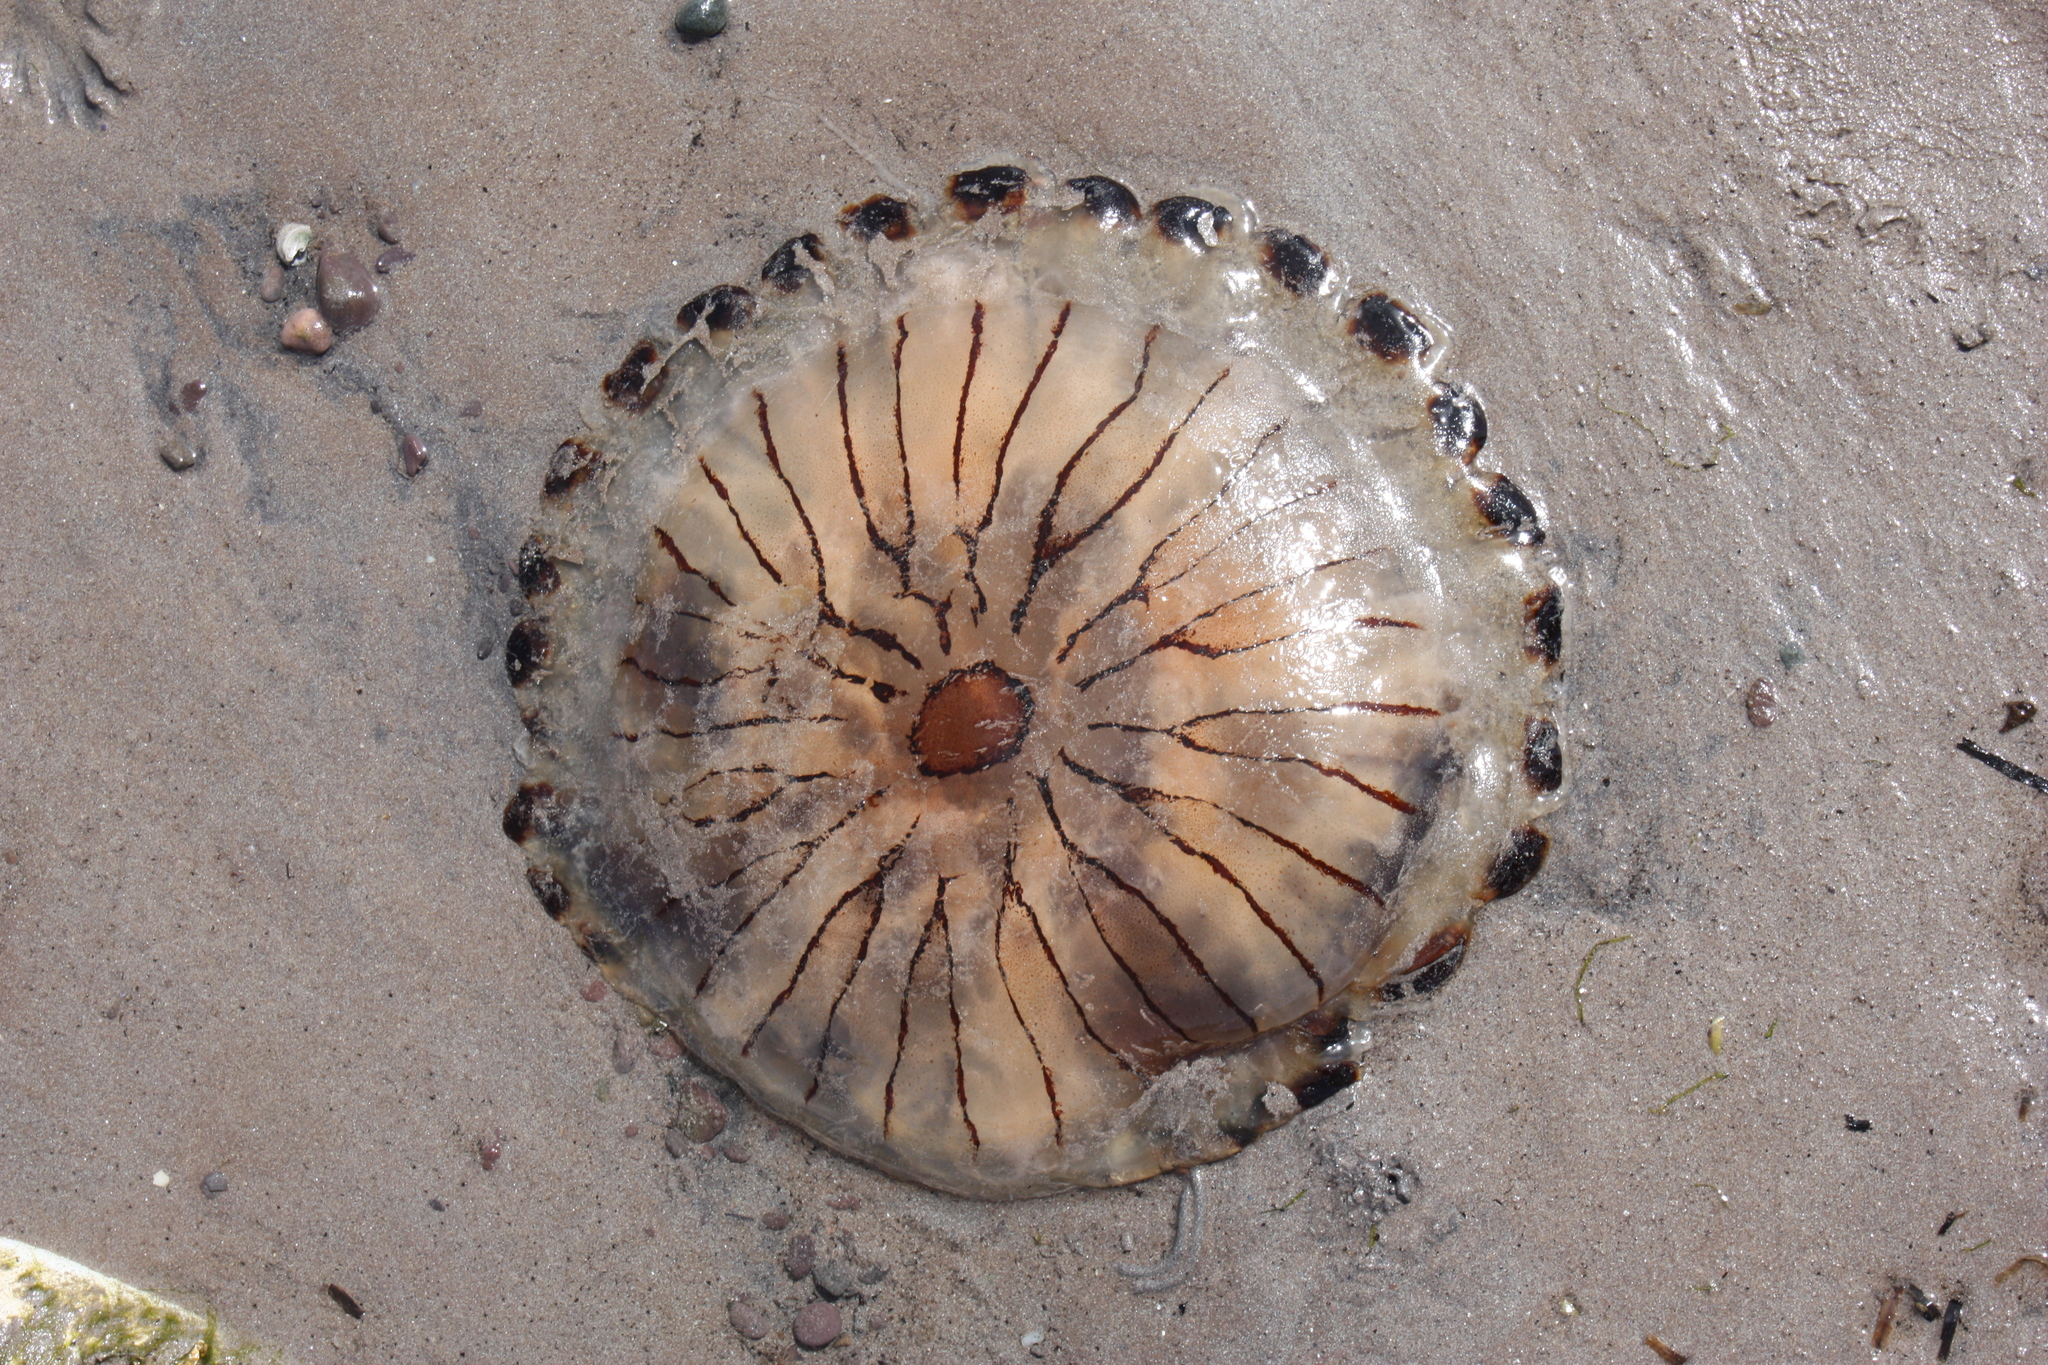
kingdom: Animalia
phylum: Cnidaria
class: Scyphozoa
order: Semaeostomeae
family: Pelagiidae
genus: Chrysaora
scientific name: Chrysaora hysoscella
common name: Compass jellyfish
